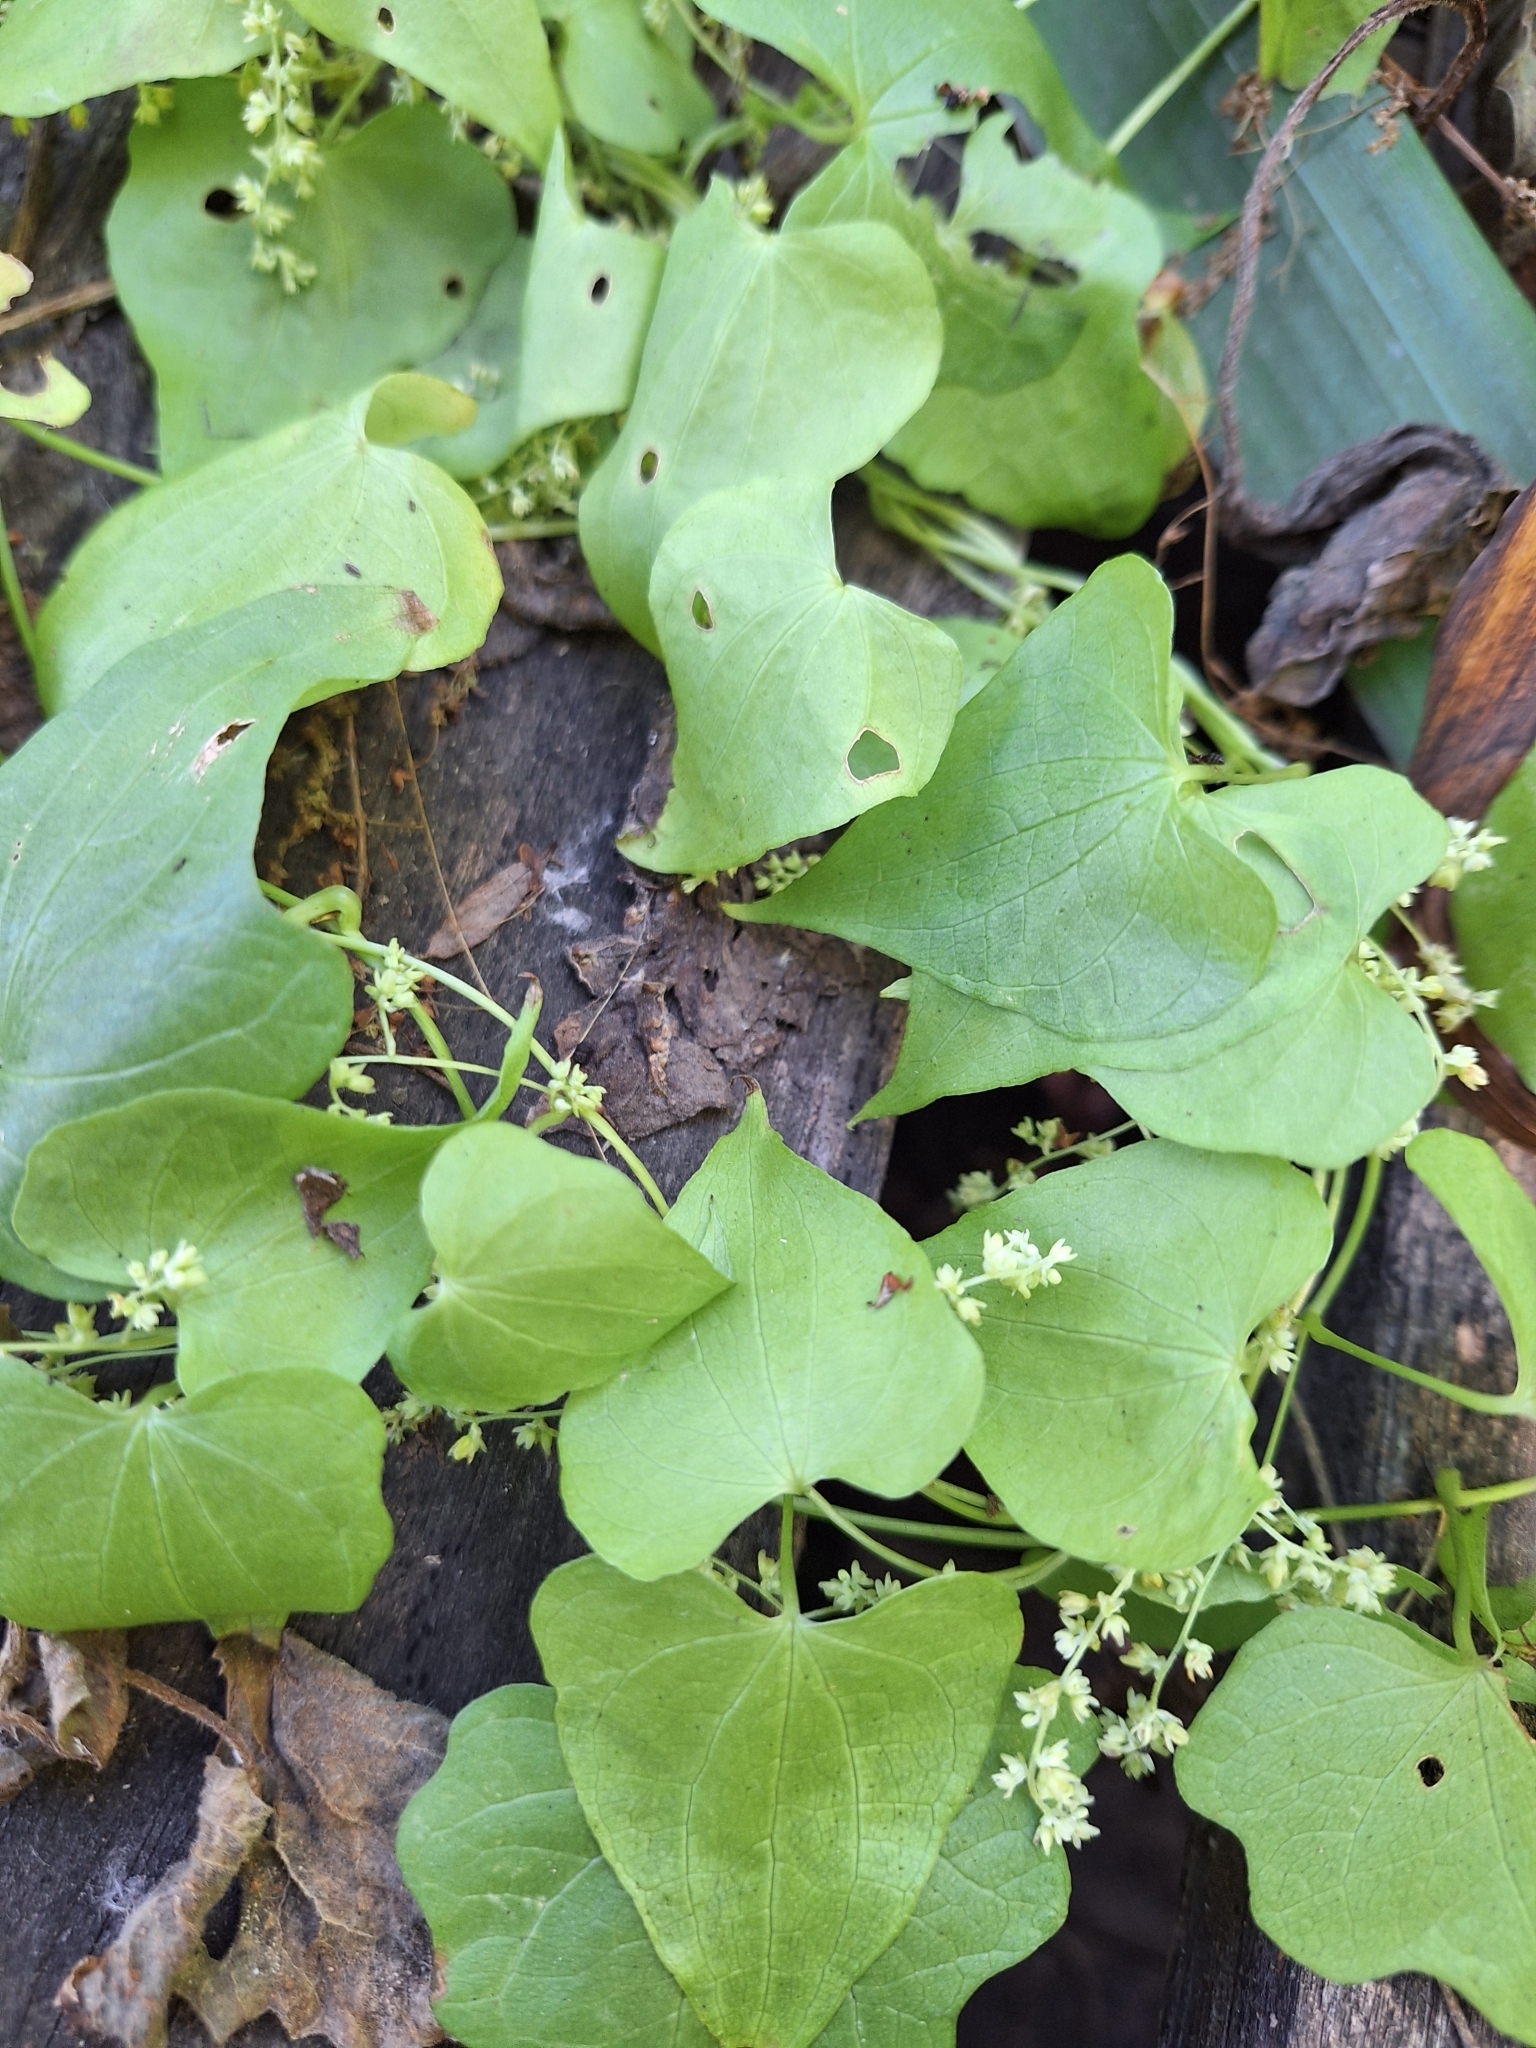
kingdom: Plantae
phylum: Tracheophyta
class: Liliopsida
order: Dioscoreales
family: Dioscoreaceae
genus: Dioscorea
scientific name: Dioscorea sinuata
